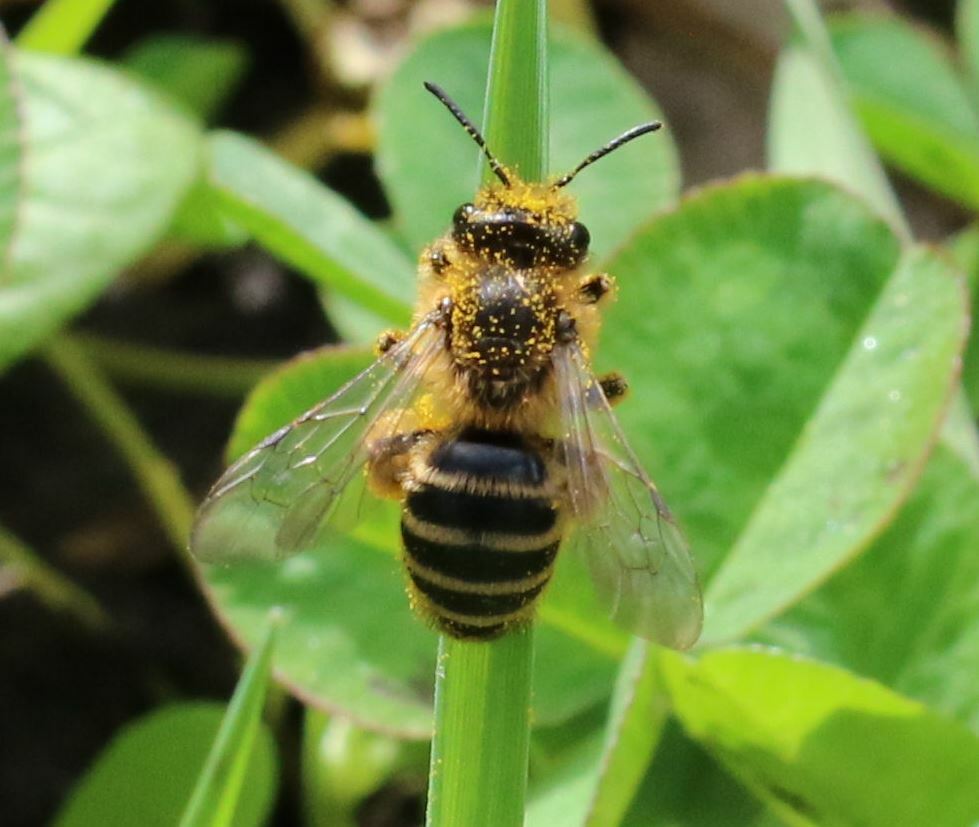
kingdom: Animalia
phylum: Arthropoda
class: Insecta
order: Hymenoptera
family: Andrenidae
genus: Andrena
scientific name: Andrena flavipes
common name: Yellow-legged mining bee
